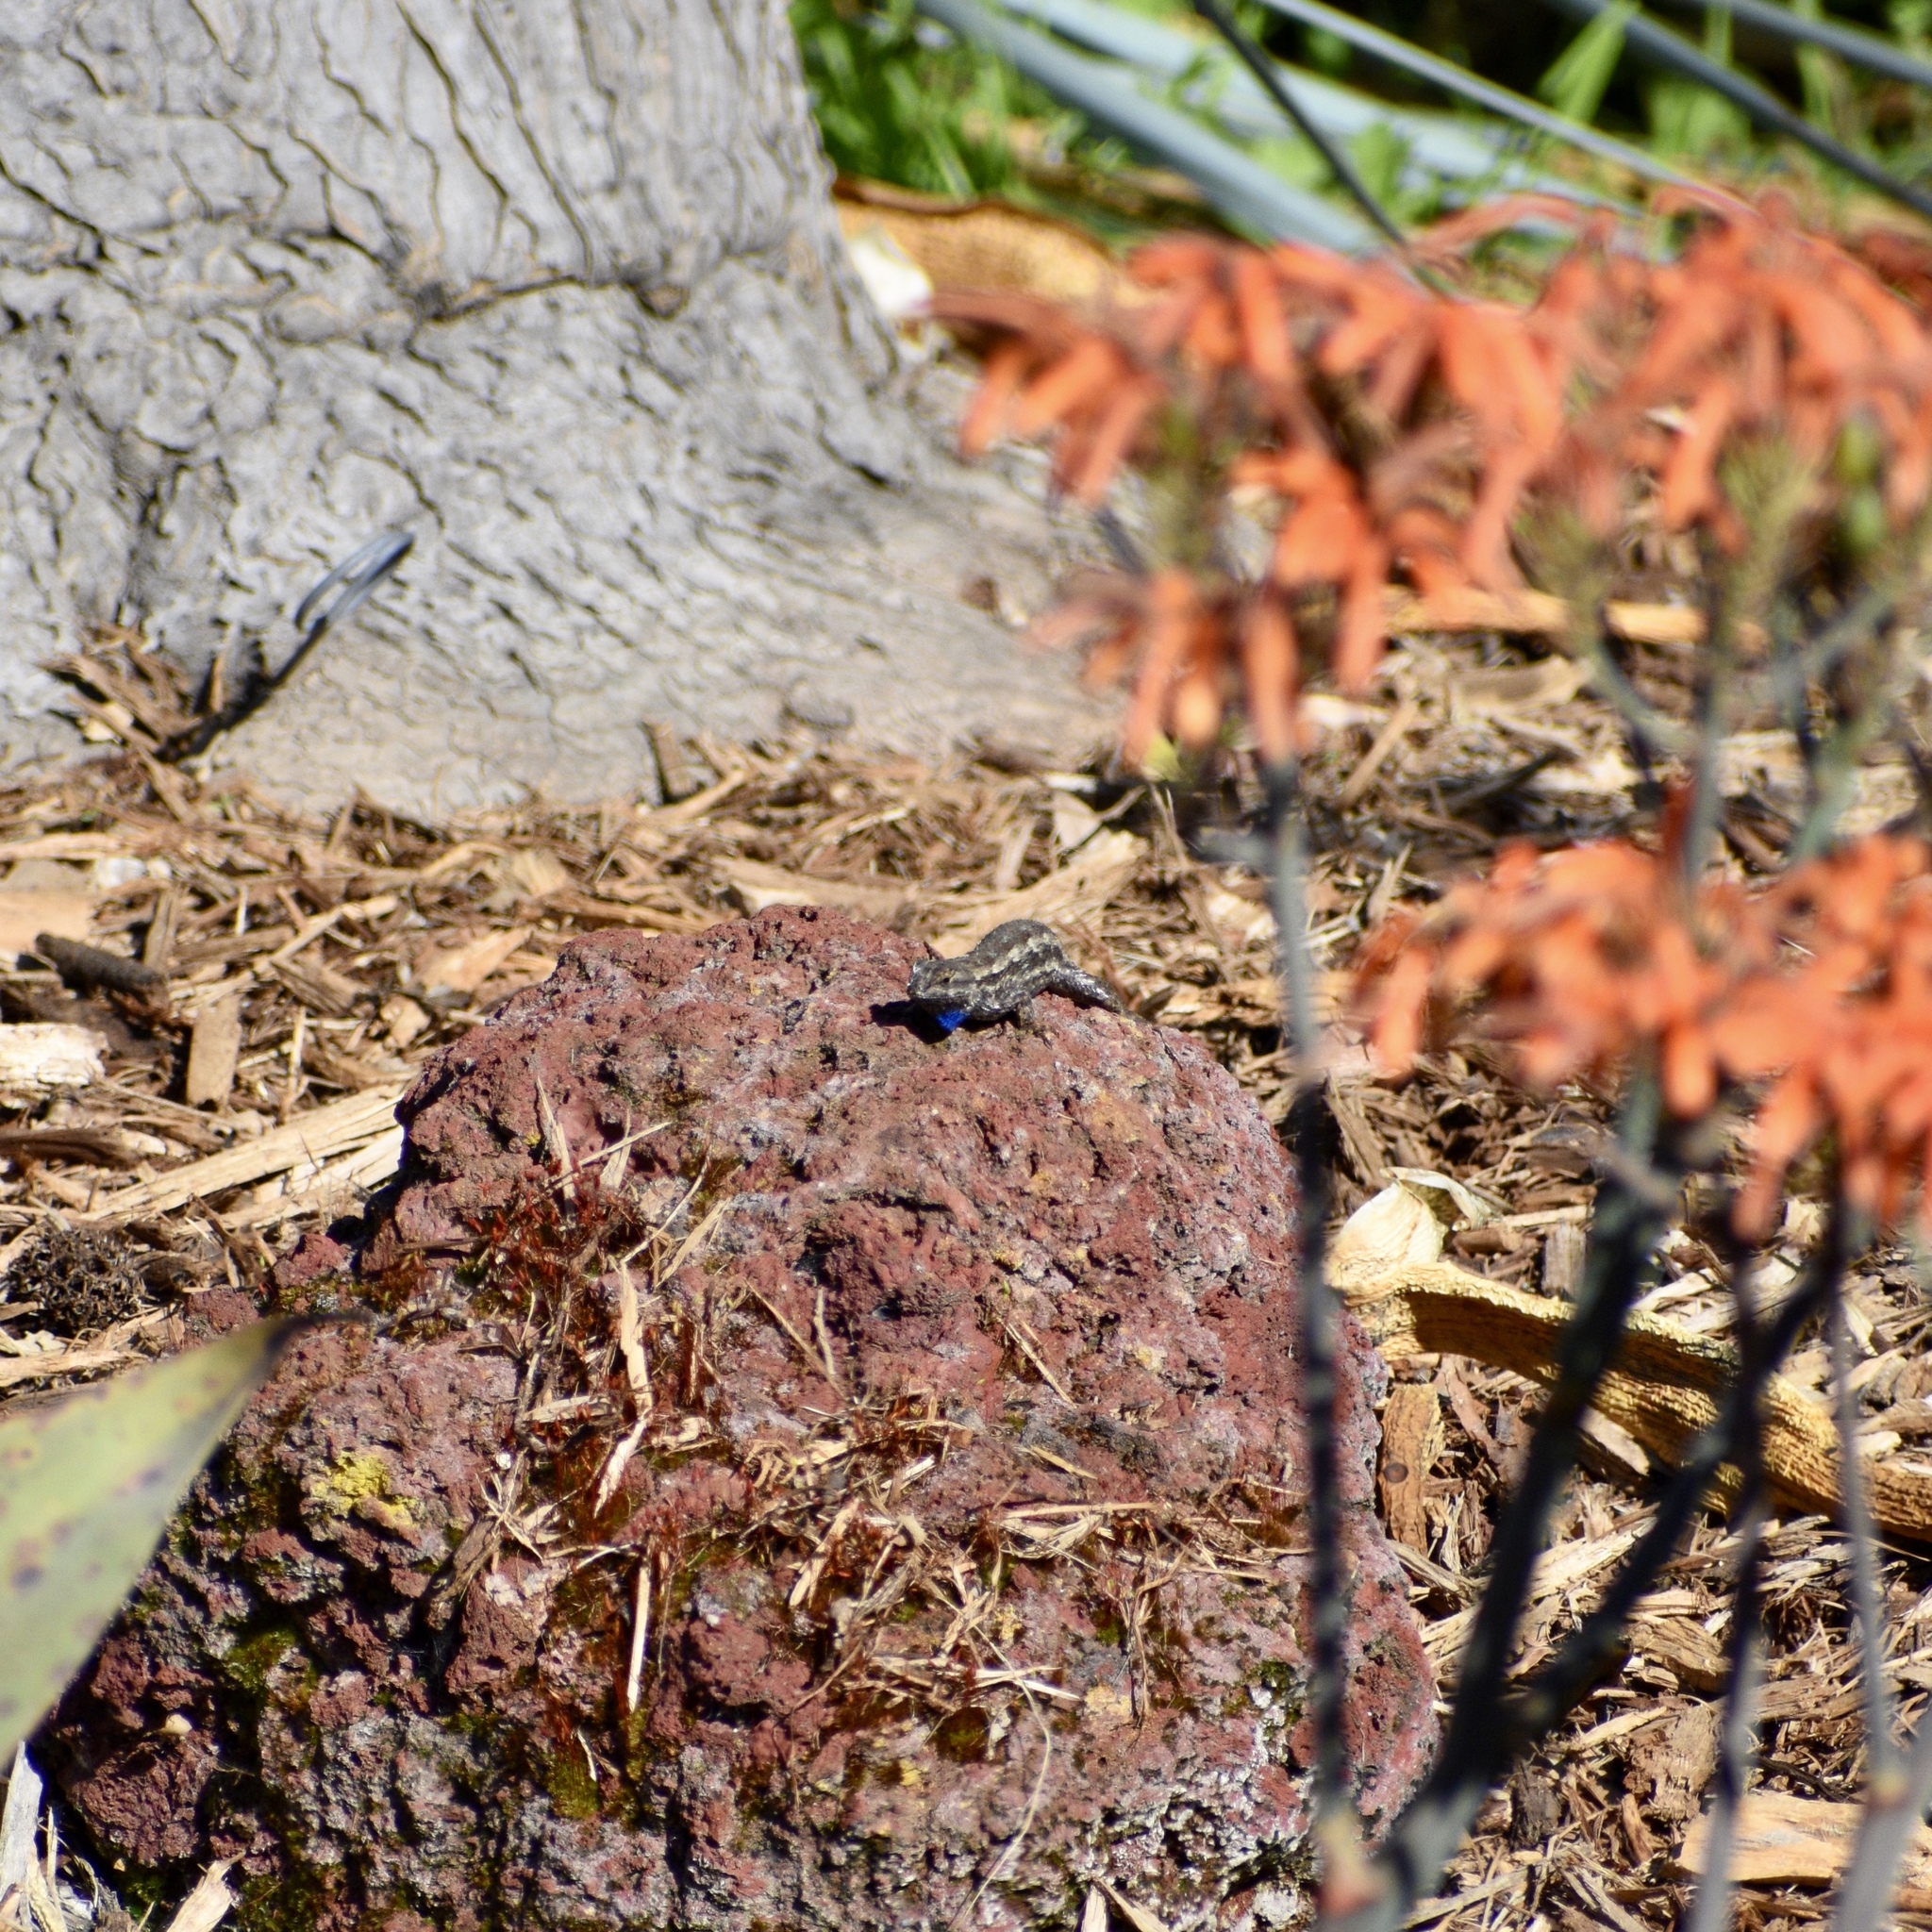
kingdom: Animalia
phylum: Chordata
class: Squamata
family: Phrynosomatidae
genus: Sceloporus
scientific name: Sceloporus occidentalis
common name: Western fence lizard
